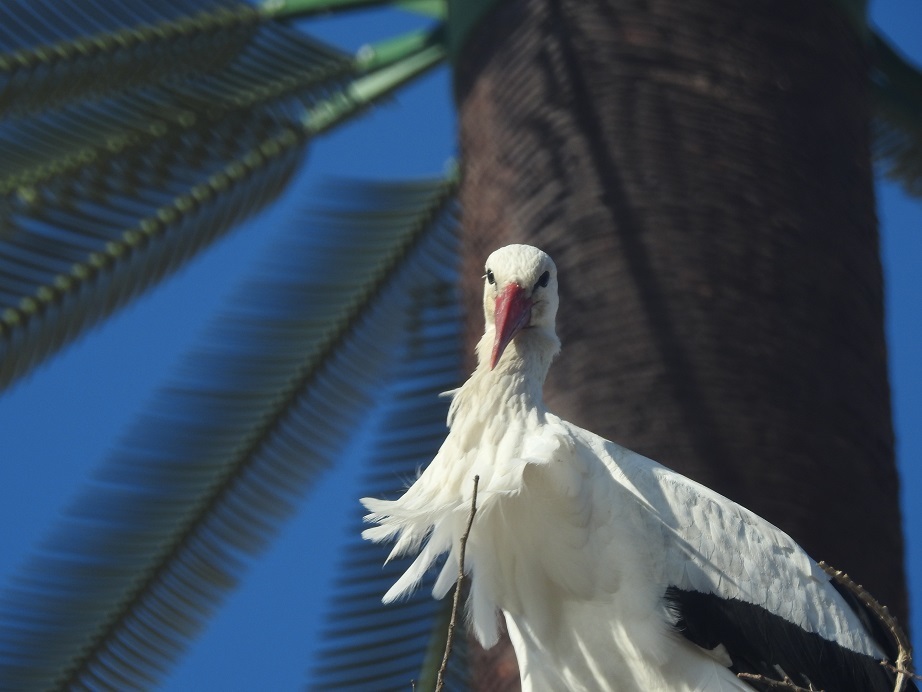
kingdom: Animalia
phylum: Chordata
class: Aves
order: Ciconiiformes
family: Ciconiidae
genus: Ciconia
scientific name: Ciconia ciconia
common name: White stork
